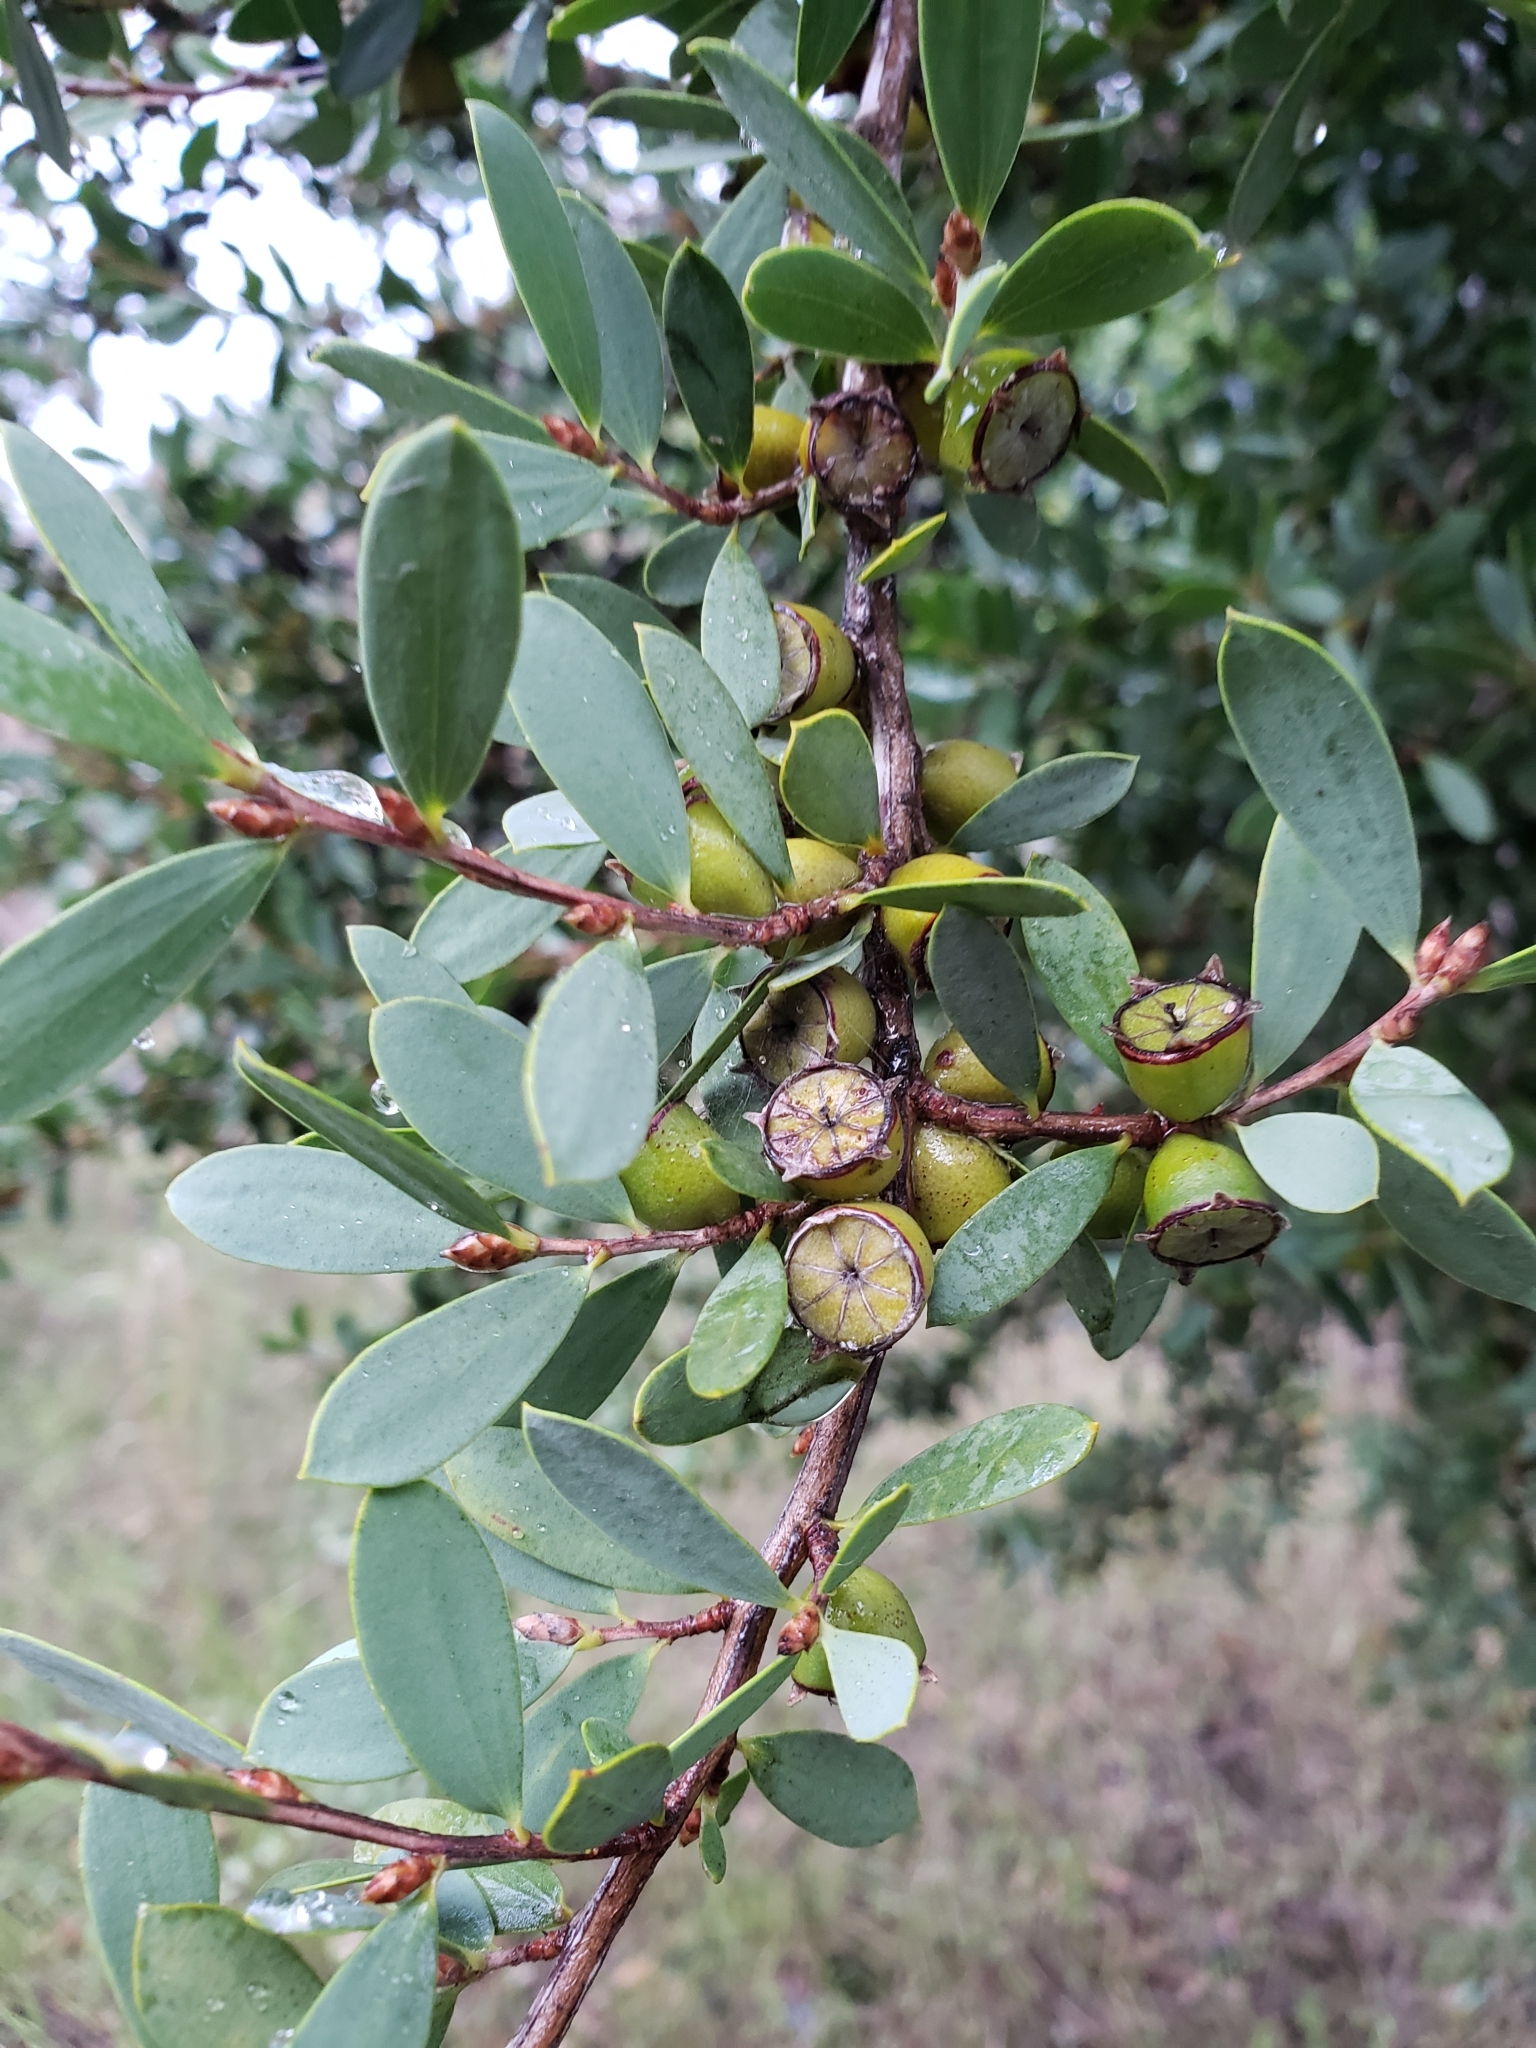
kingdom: Plantae
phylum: Tracheophyta
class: Magnoliopsida
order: Myrtales
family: Myrtaceae
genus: Leptospermum
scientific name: Leptospermum laevigatum
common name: Australian teatree
